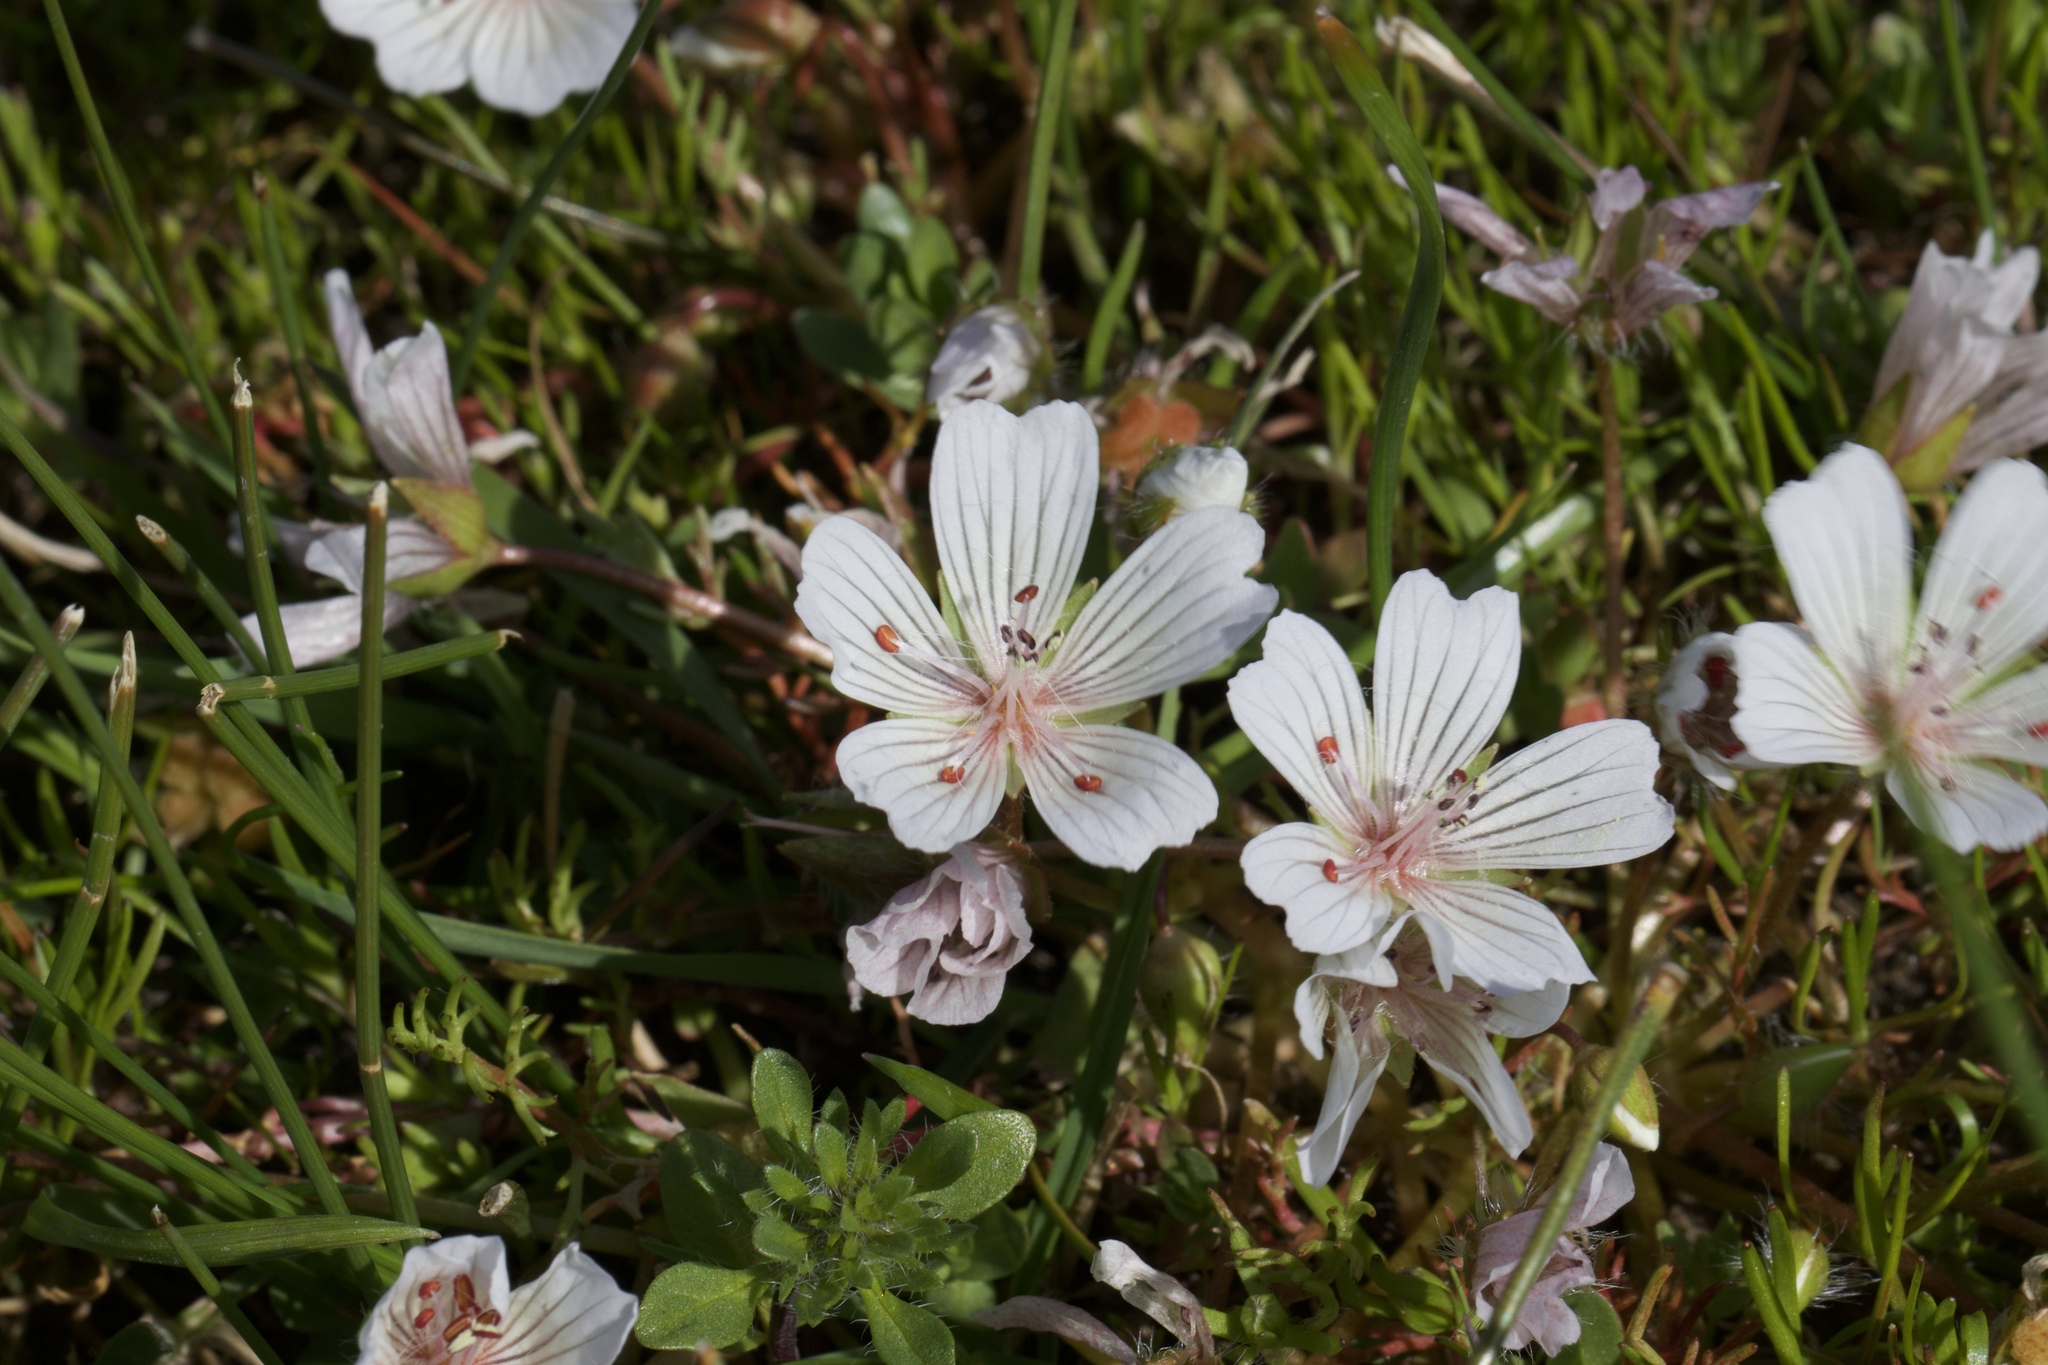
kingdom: Plantae
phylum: Tracheophyta
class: Magnoliopsida
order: Brassicales
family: Limnanthaceae
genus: Limnanthes
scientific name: Limnanthes douglasii
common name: Meadow-foam
